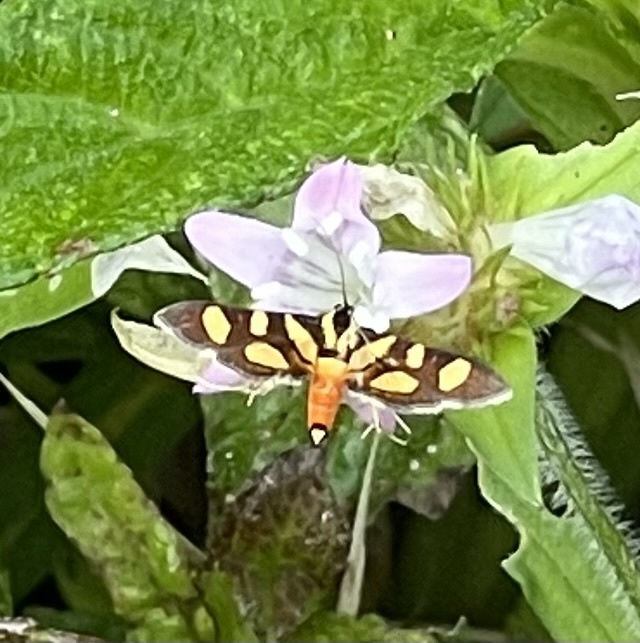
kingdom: Animalia
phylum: Arthropoda
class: Insecta
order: Lepidoptera
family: Crambidae
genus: Syngamia
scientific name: Syngamia florella
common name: Orange-spotted flower moth
